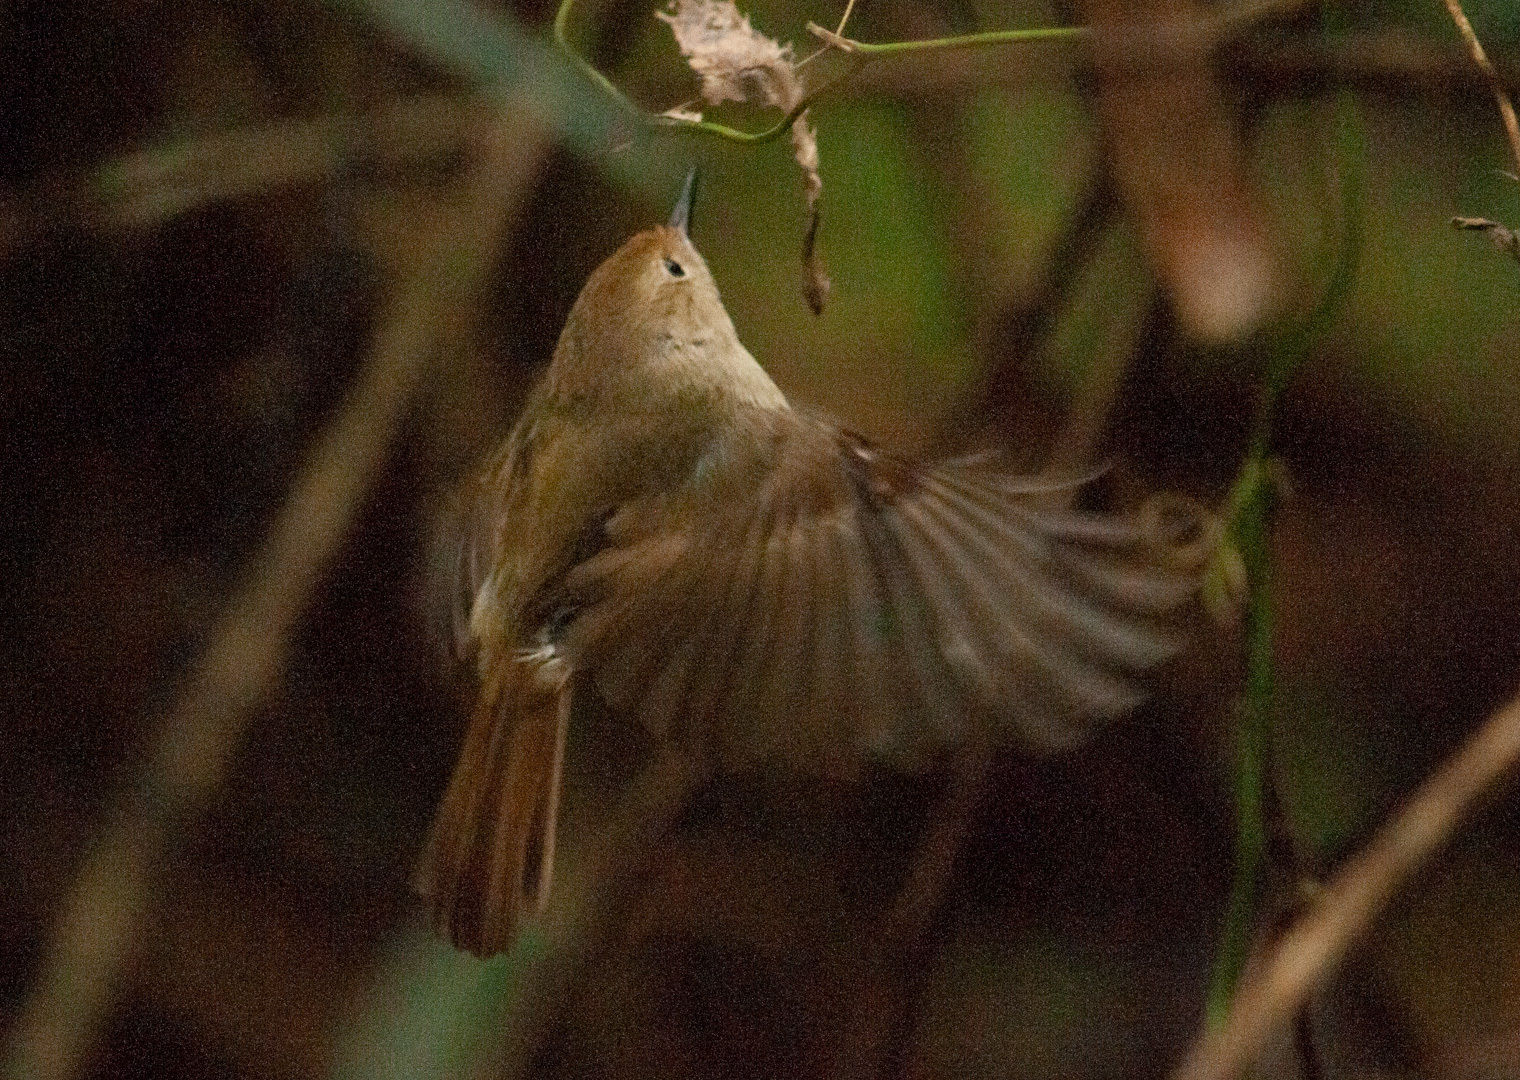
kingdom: Animalia
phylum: Chordata
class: Aves
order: Passeriformes
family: Acanthizidae
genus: Sericornis
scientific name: Sericornis magnirostra
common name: Large-billed scrubwren
